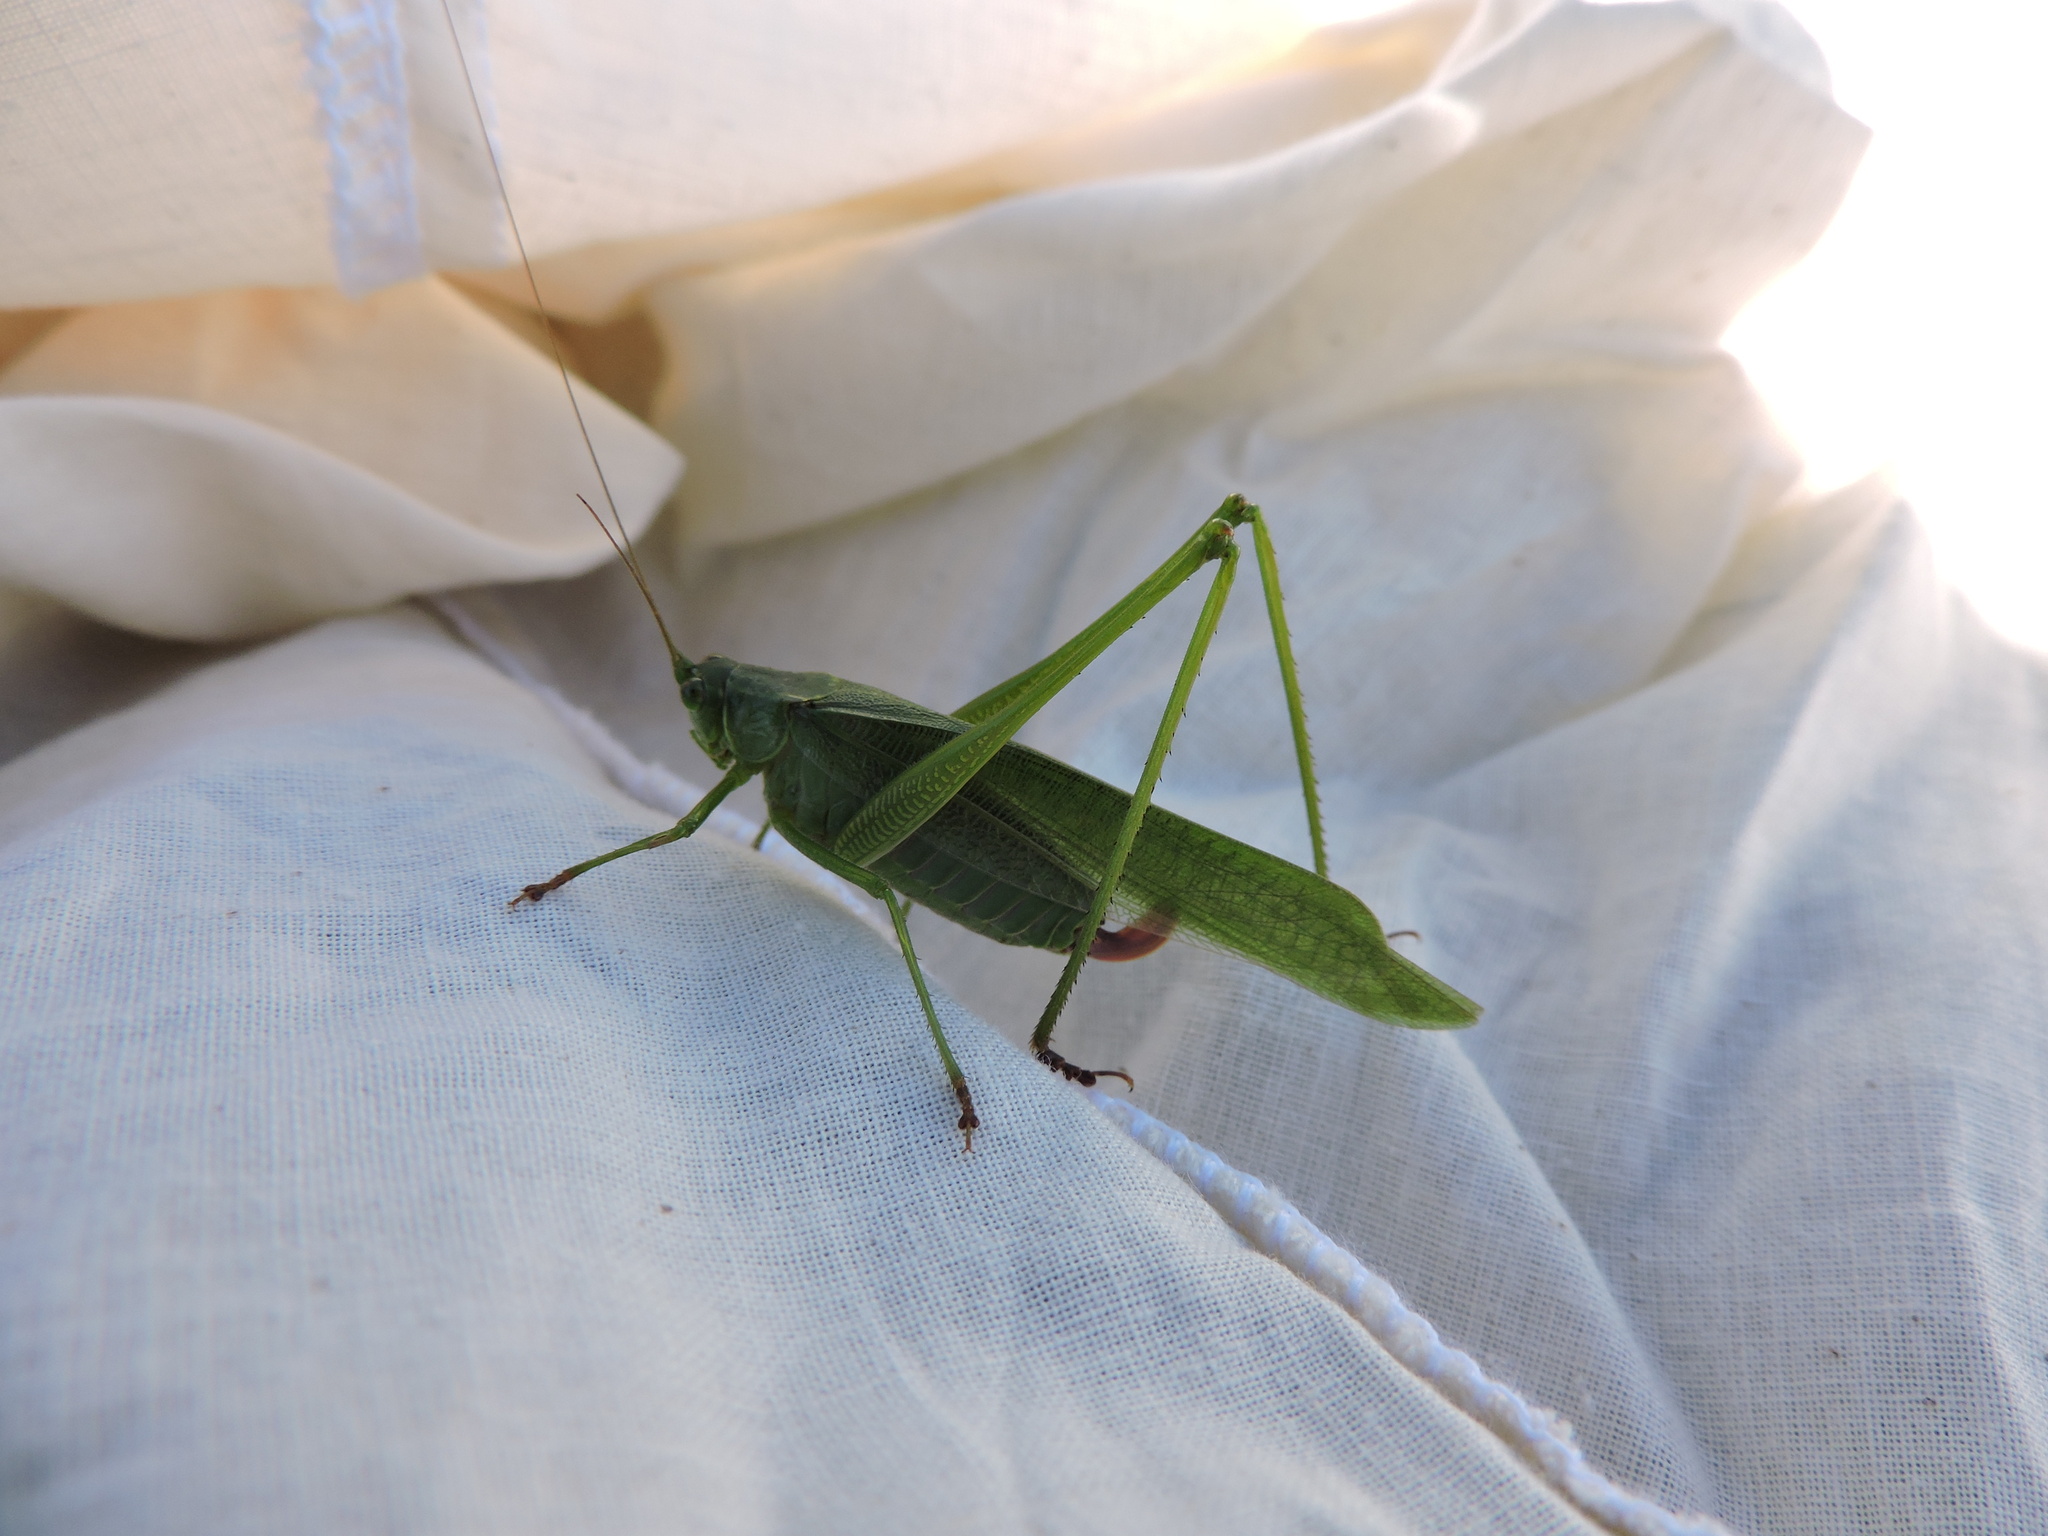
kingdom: Animalia
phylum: Arthropoda
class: Insecta
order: Orthoptera
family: Tettigoniidae
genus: Scudderia
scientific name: Scudderia furcata
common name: Fork-tailed bush katydid
